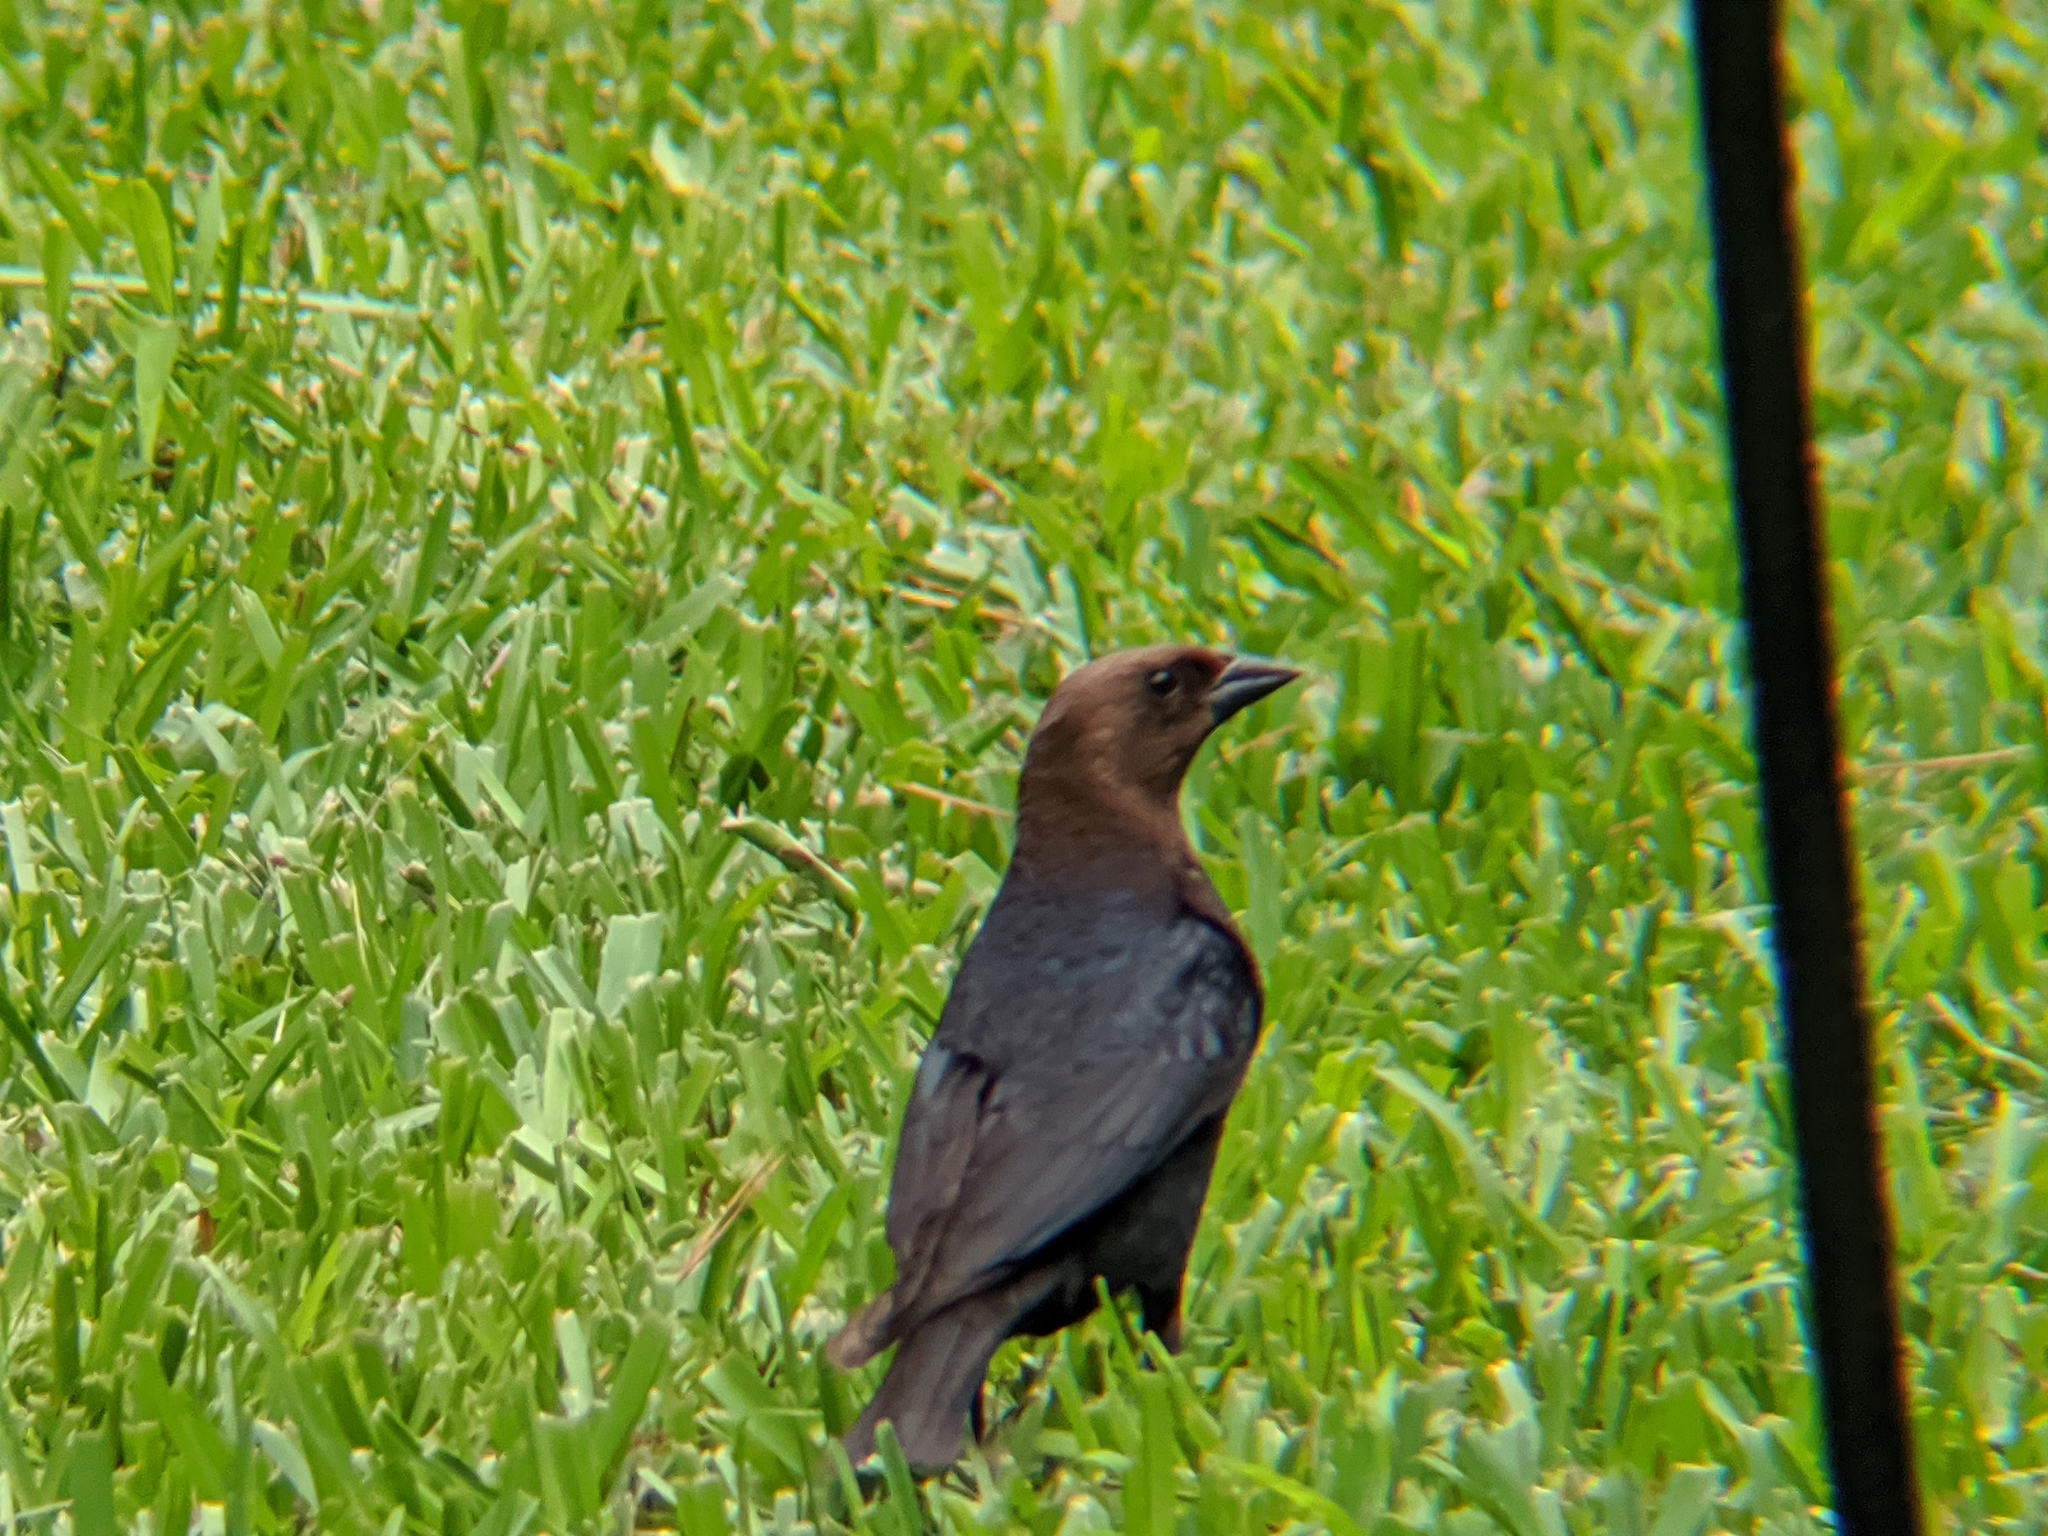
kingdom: Animalia
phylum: Chordata
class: Aves
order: Passeriformes
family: Icteridae
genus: Molothrus
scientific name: Molothrus ater
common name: Brown-headed cowbird
